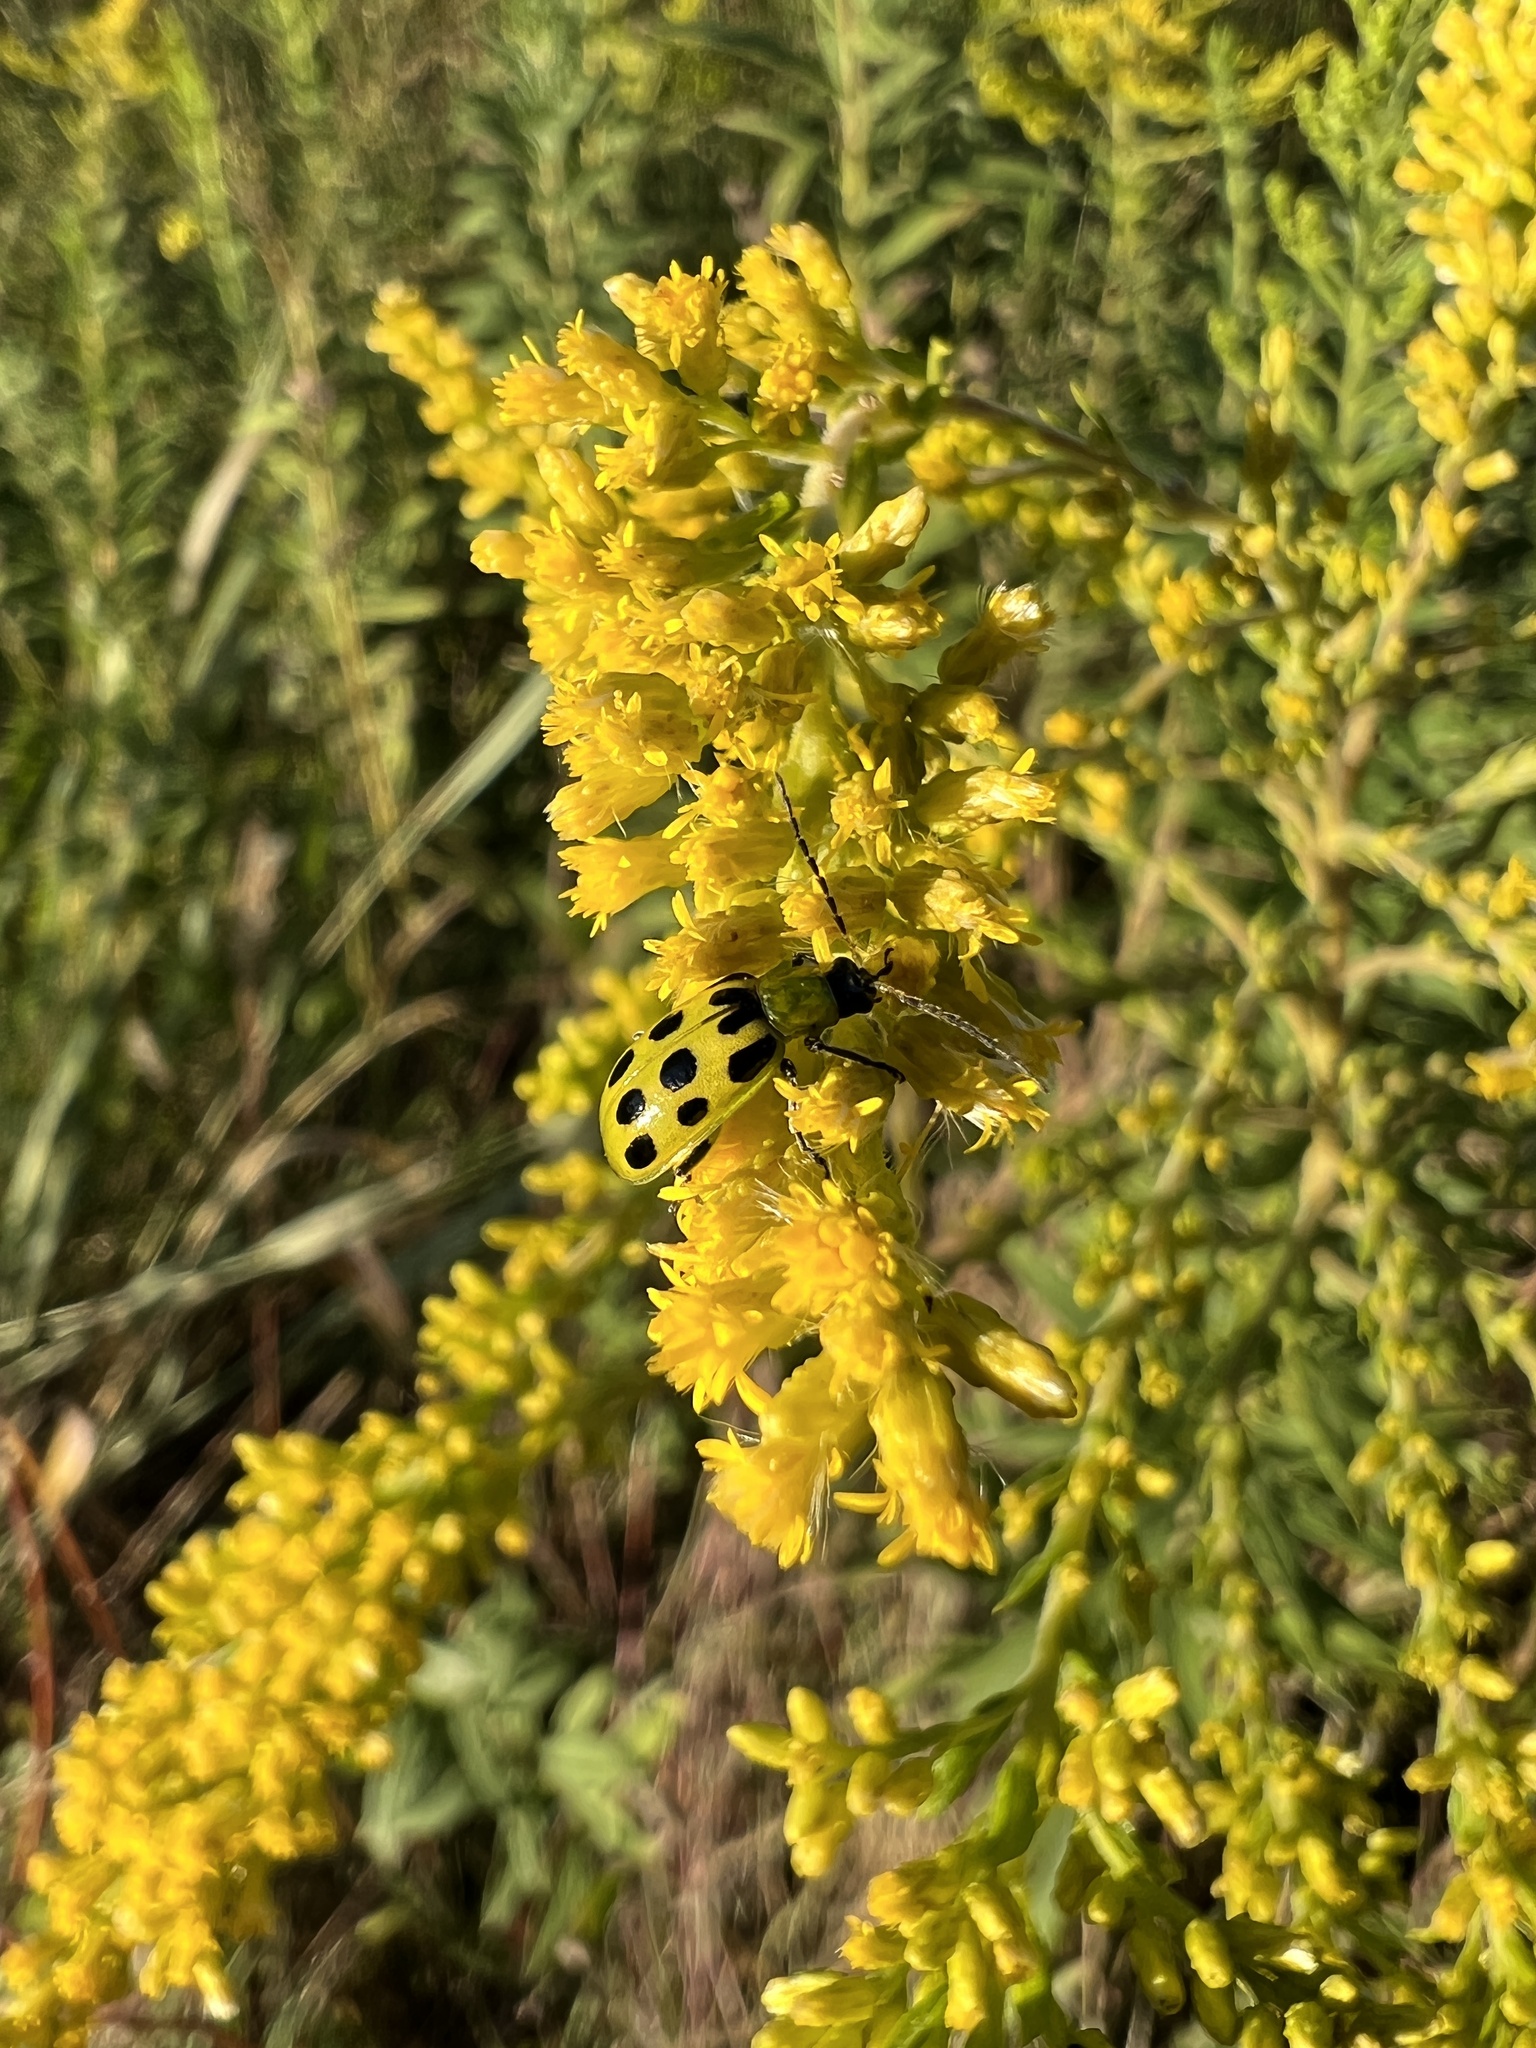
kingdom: Animalia
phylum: Arthropoda
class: Insecta
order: Coleoptera
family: Chrysomelidae
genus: Diabrotica
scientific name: Diabrotica undecimpunctata
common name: Spotted cucumber beetle
